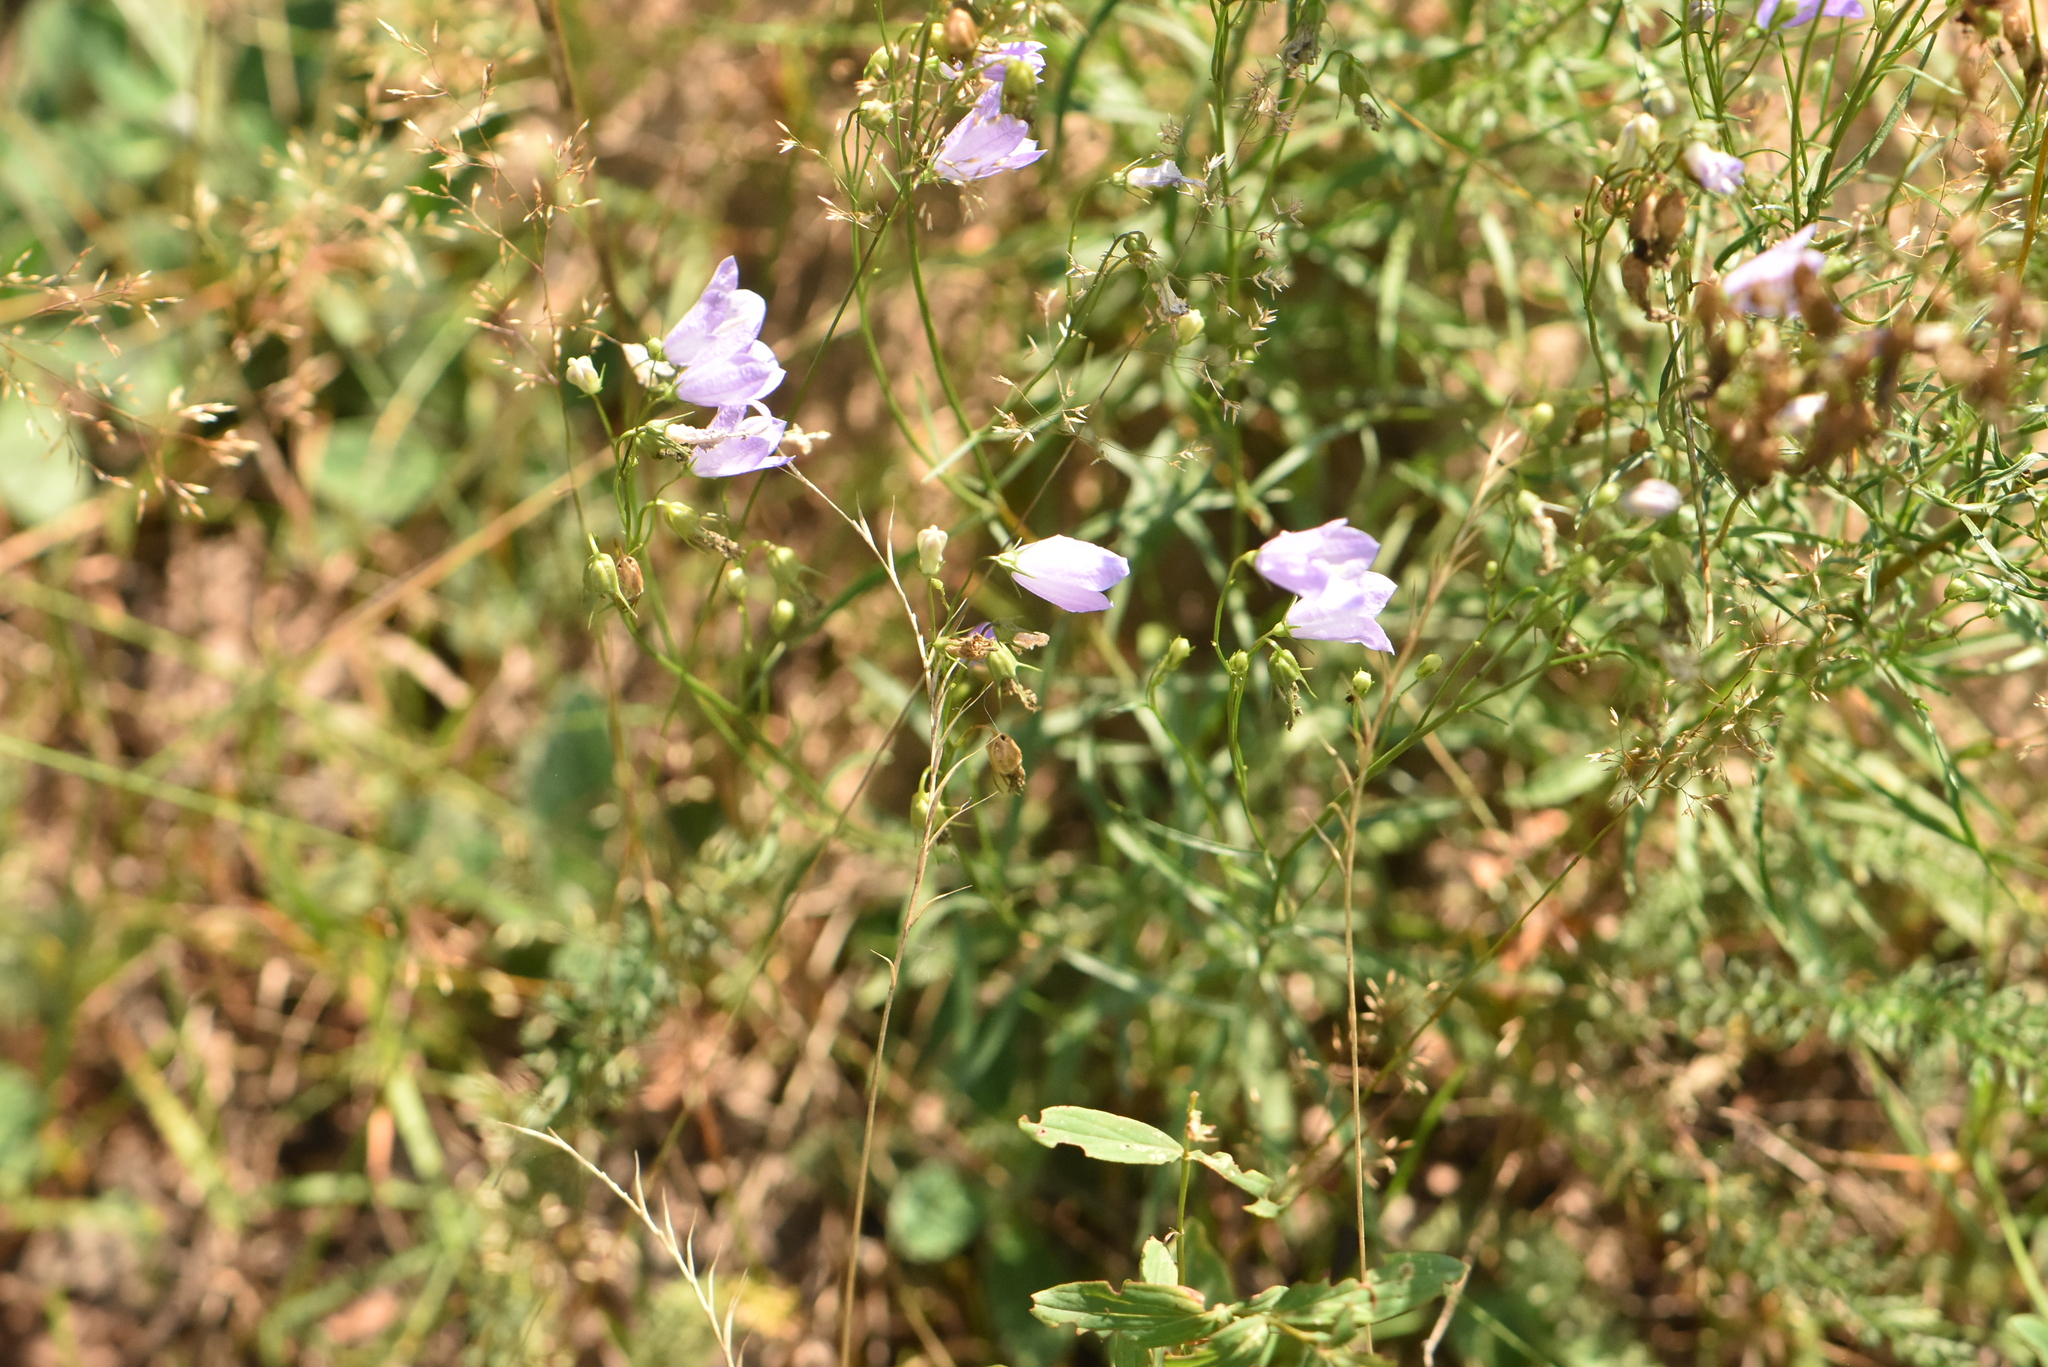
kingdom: Plantae
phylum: Tracheophyta
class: Magnoliopsida
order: Asterales
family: Campanulaceae
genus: Campanula
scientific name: Campanula rotundifolia
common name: Harebell
